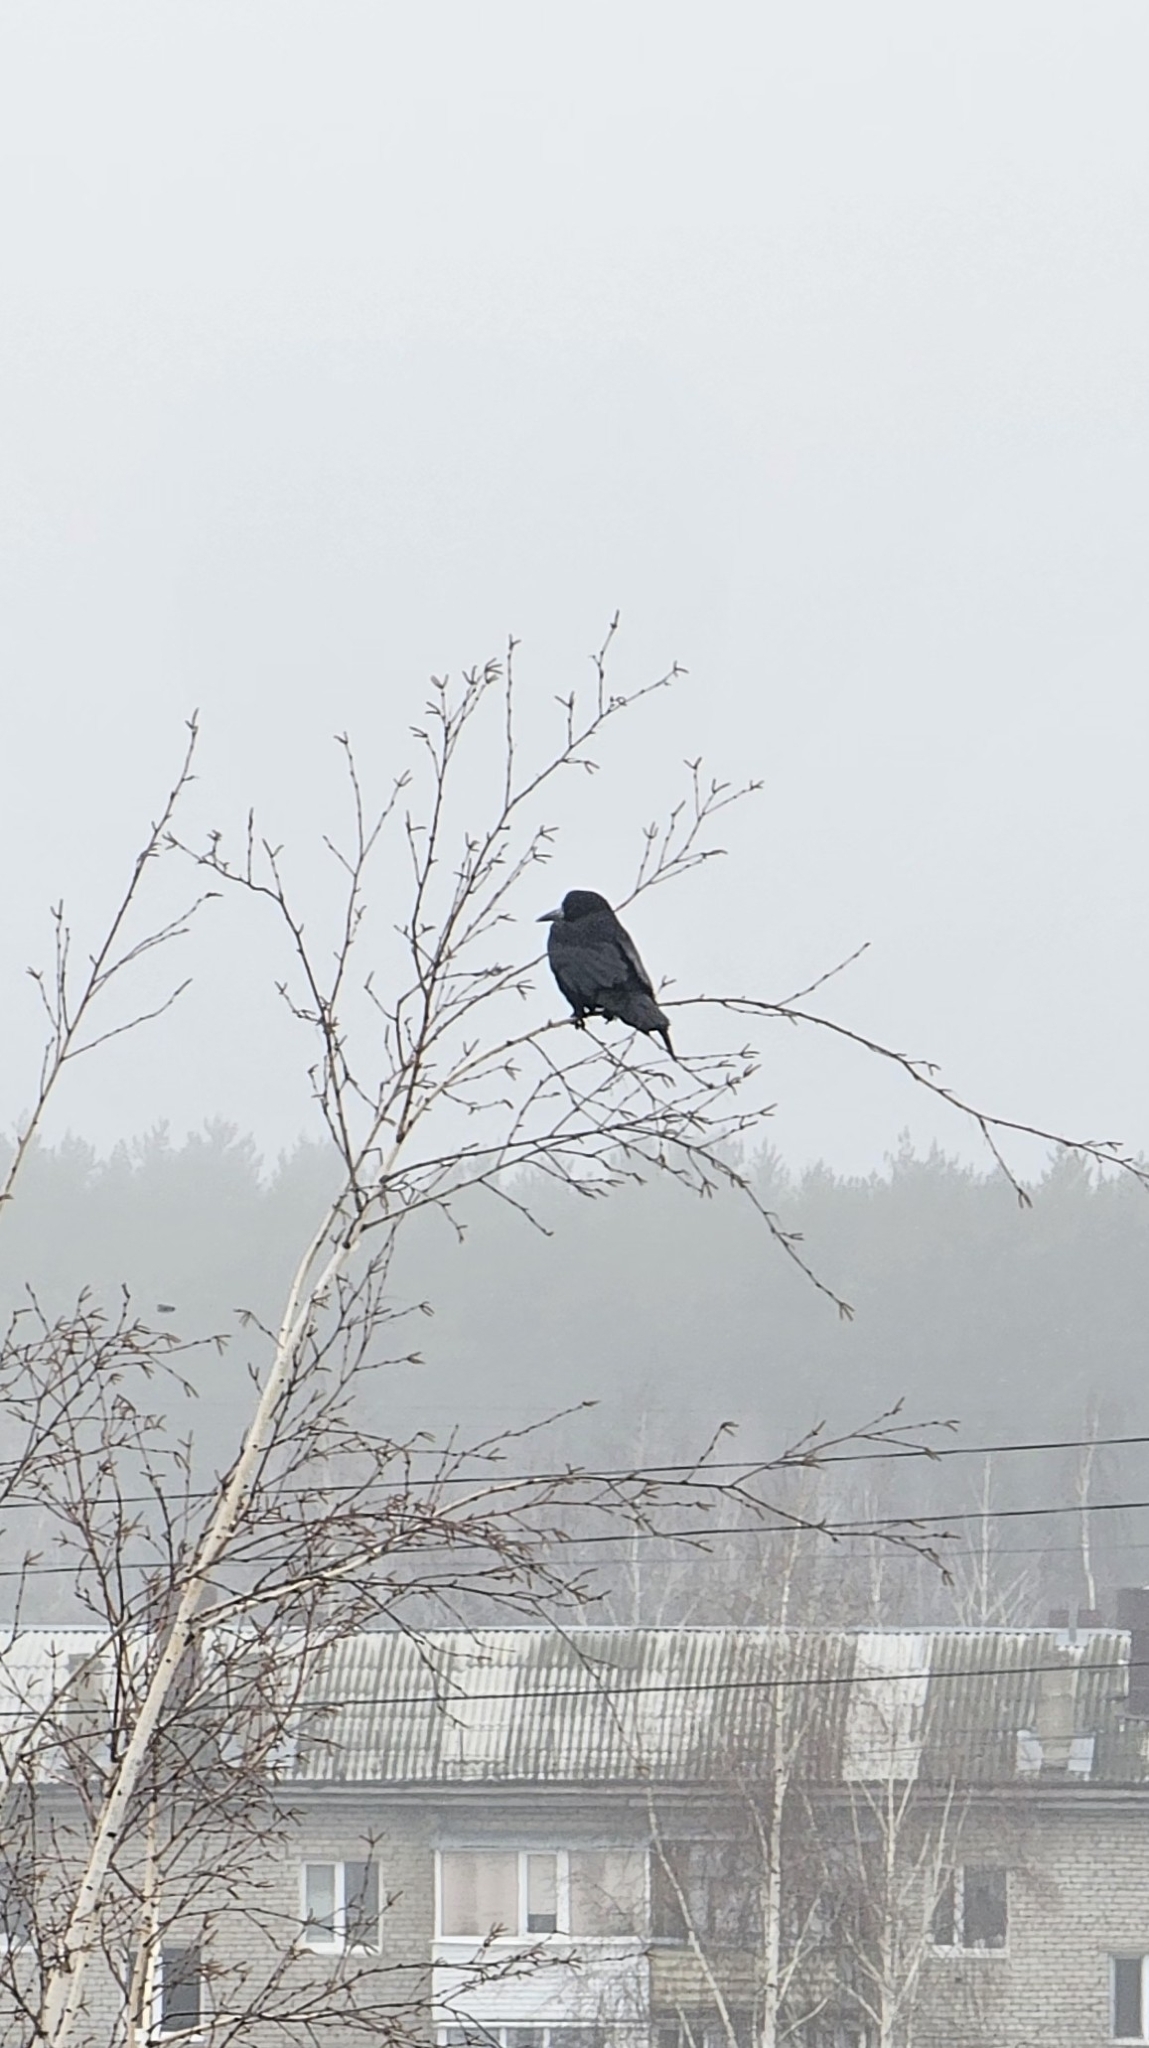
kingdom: Animalia
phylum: Chordata
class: Aves
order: Passeriformes
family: Corvidae
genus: Corvus
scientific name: Corvus frugilegus
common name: Rook
